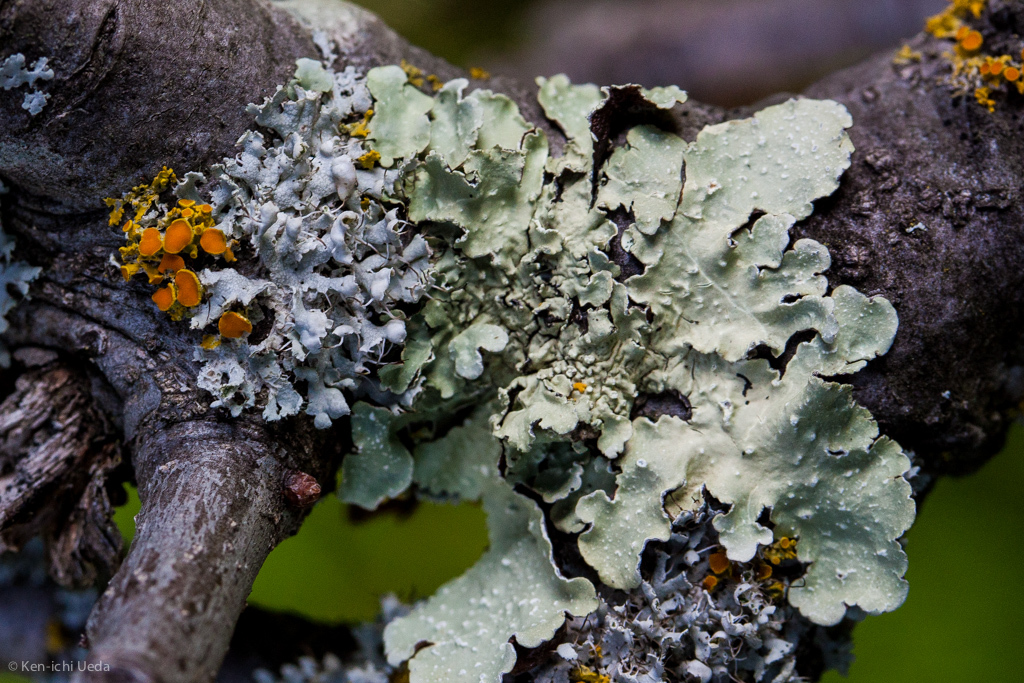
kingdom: Fungi
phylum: Ascomycota
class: Lecanoromycetes
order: Caliciales
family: Physciaceae
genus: Physcia
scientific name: Physcia adscendens
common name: Hooded rosette lichen
